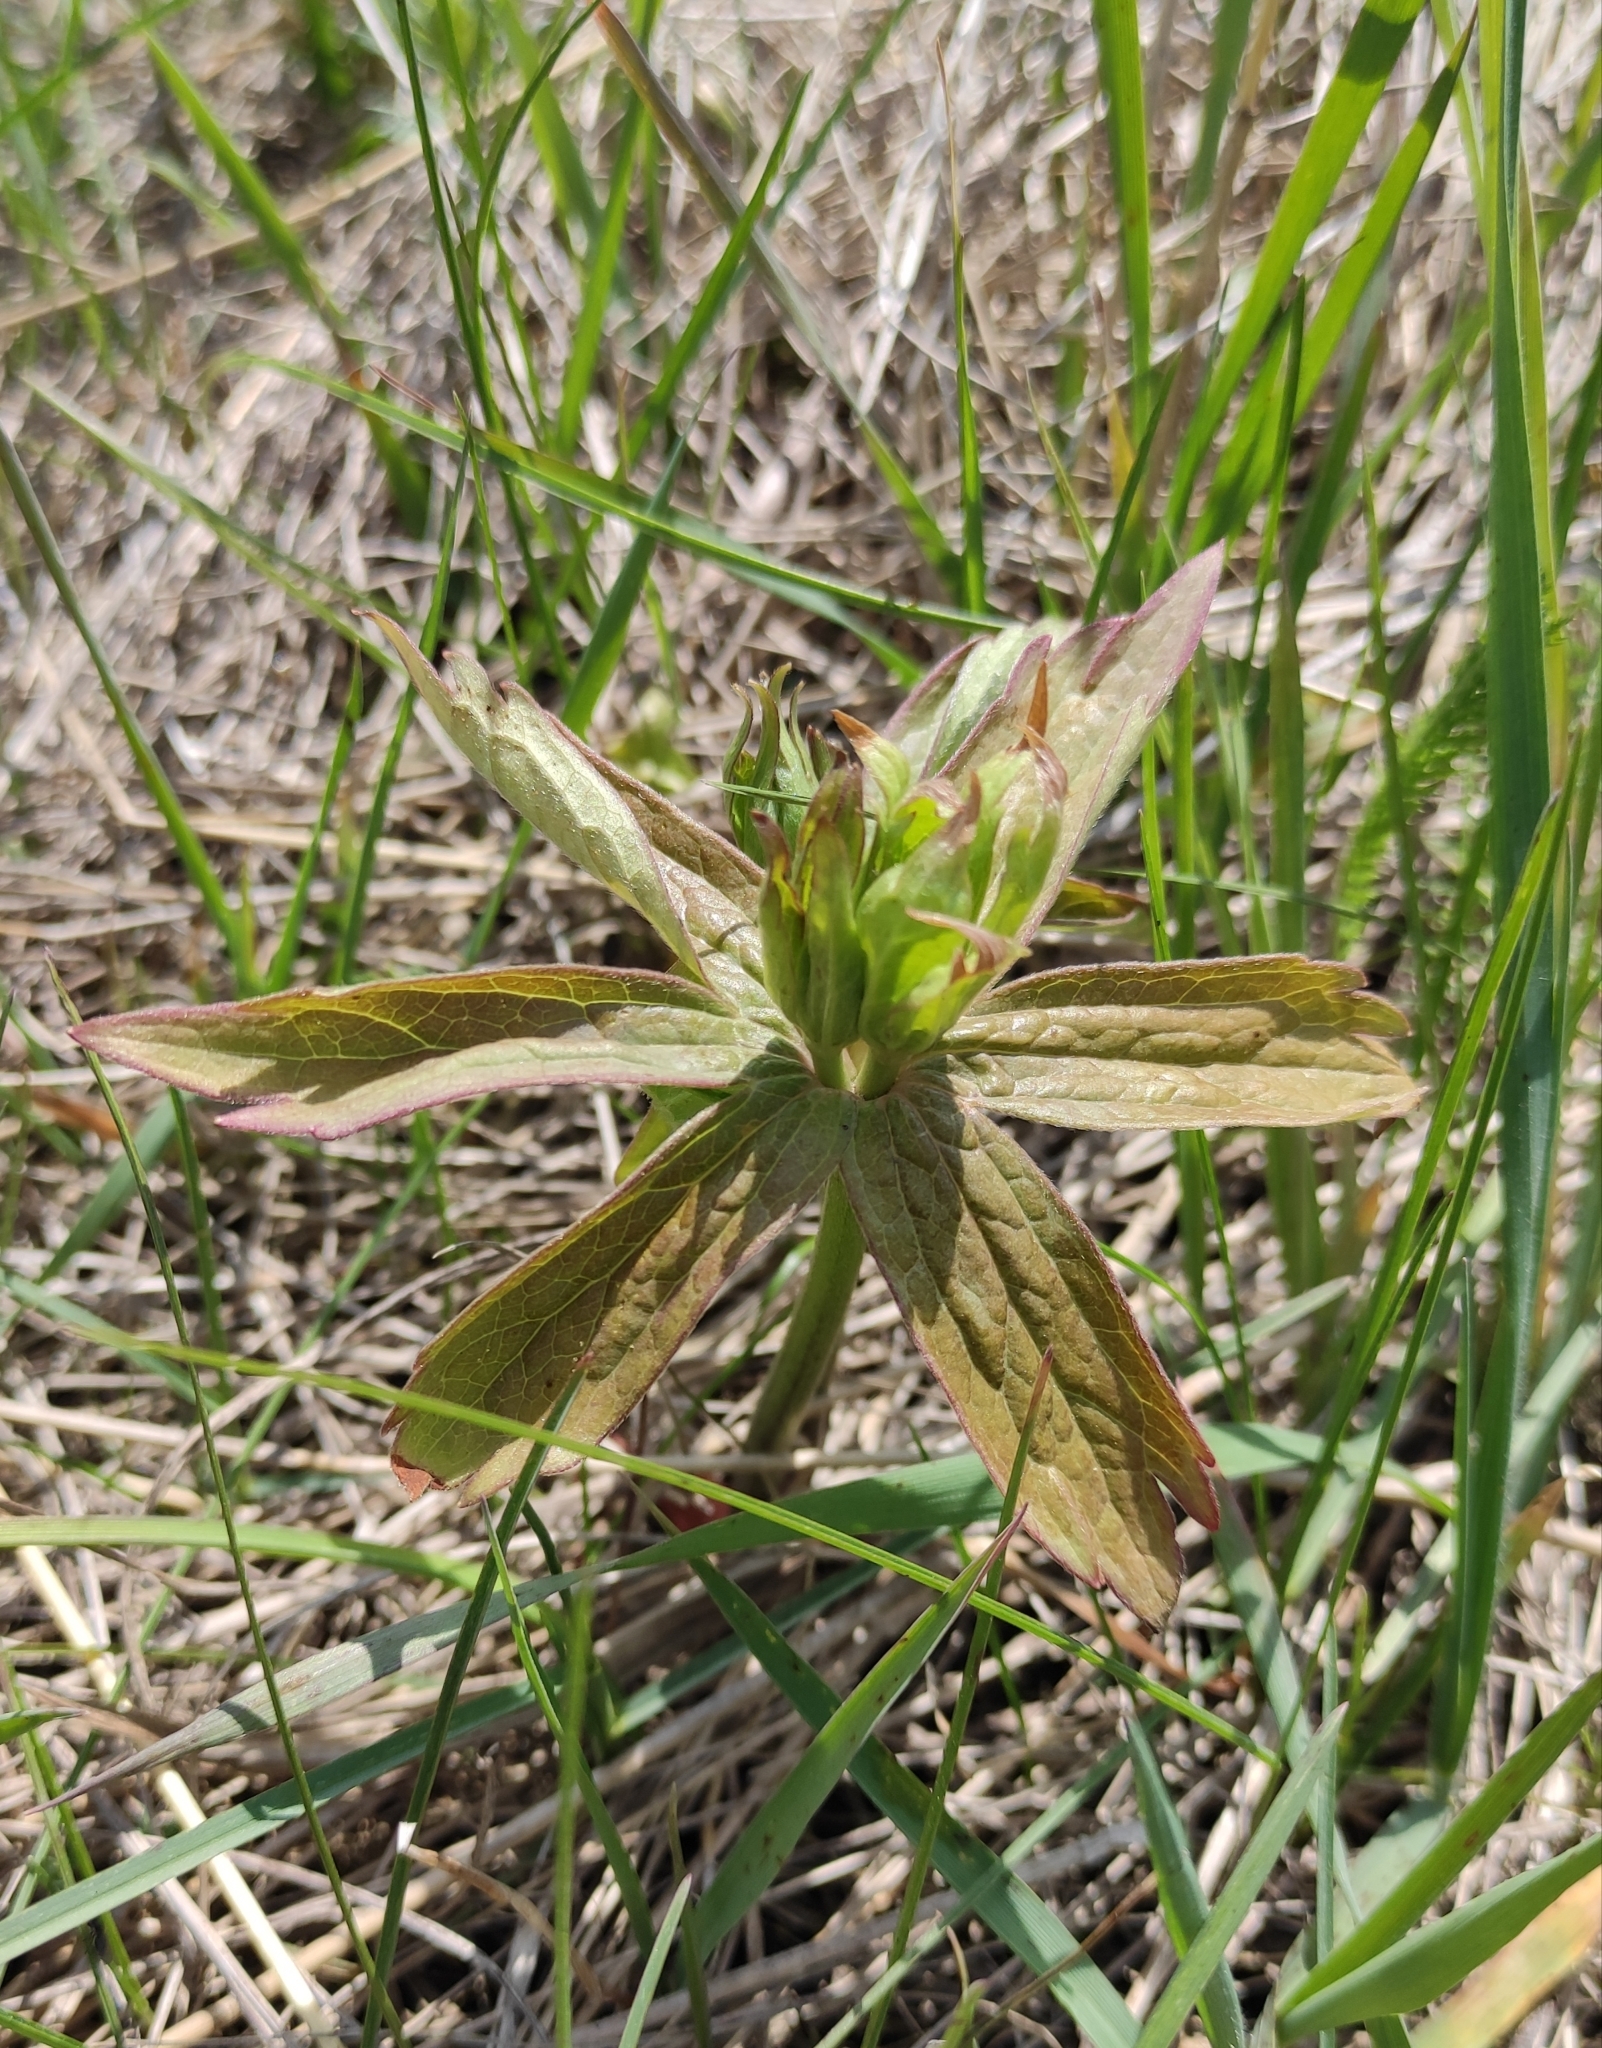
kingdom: Plantae
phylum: Tracheophyta
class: Magnoliopsida
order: Ranunculales
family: Ranunculaceae
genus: Anemonastrum
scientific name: Anemonastrum dichotomum
